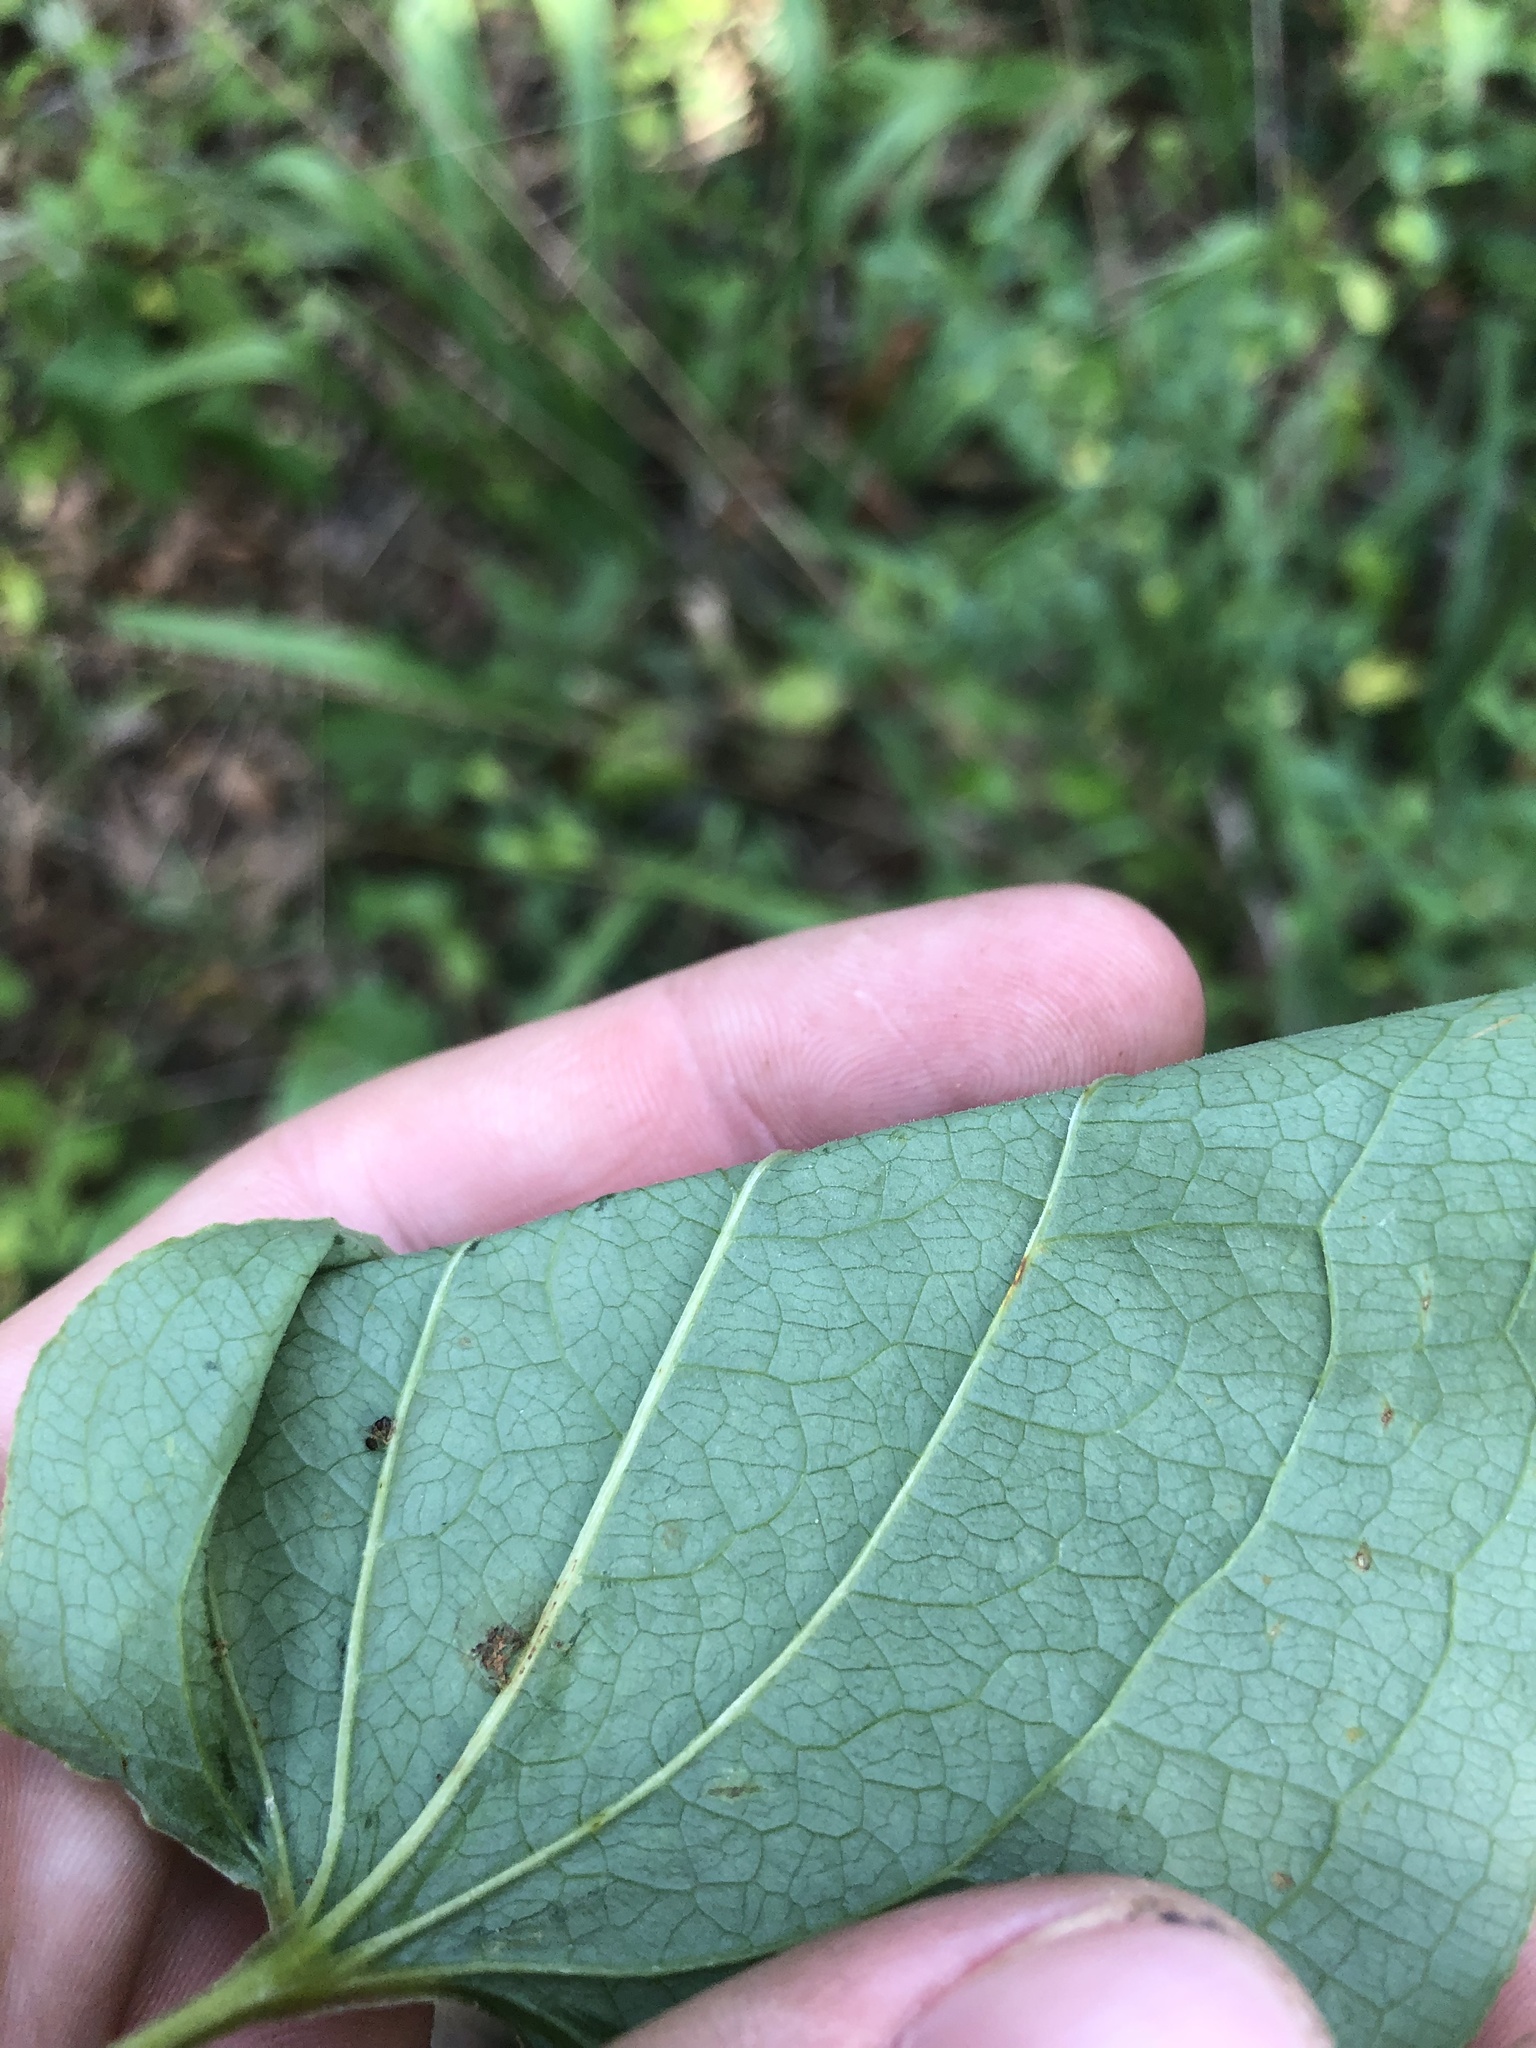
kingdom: Plantae
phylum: Tracheophyta
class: Liliopsida
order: Liliales
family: Smilacaceae
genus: Smilax
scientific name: Smilax lasioneura
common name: Blue ridge carrionflower
